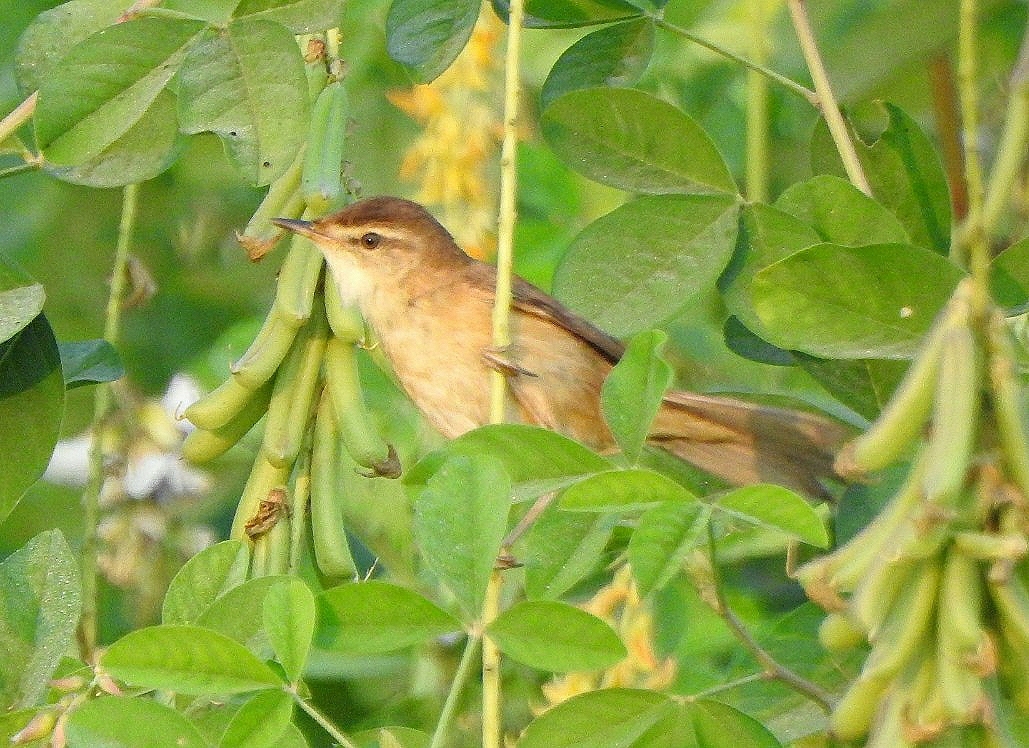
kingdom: Animalia
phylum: Chordata
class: Aves
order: Passeriformes
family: Acrocephalidae
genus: Acrocephalus
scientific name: Acrocephalus agricola
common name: Paddyfield warbler
